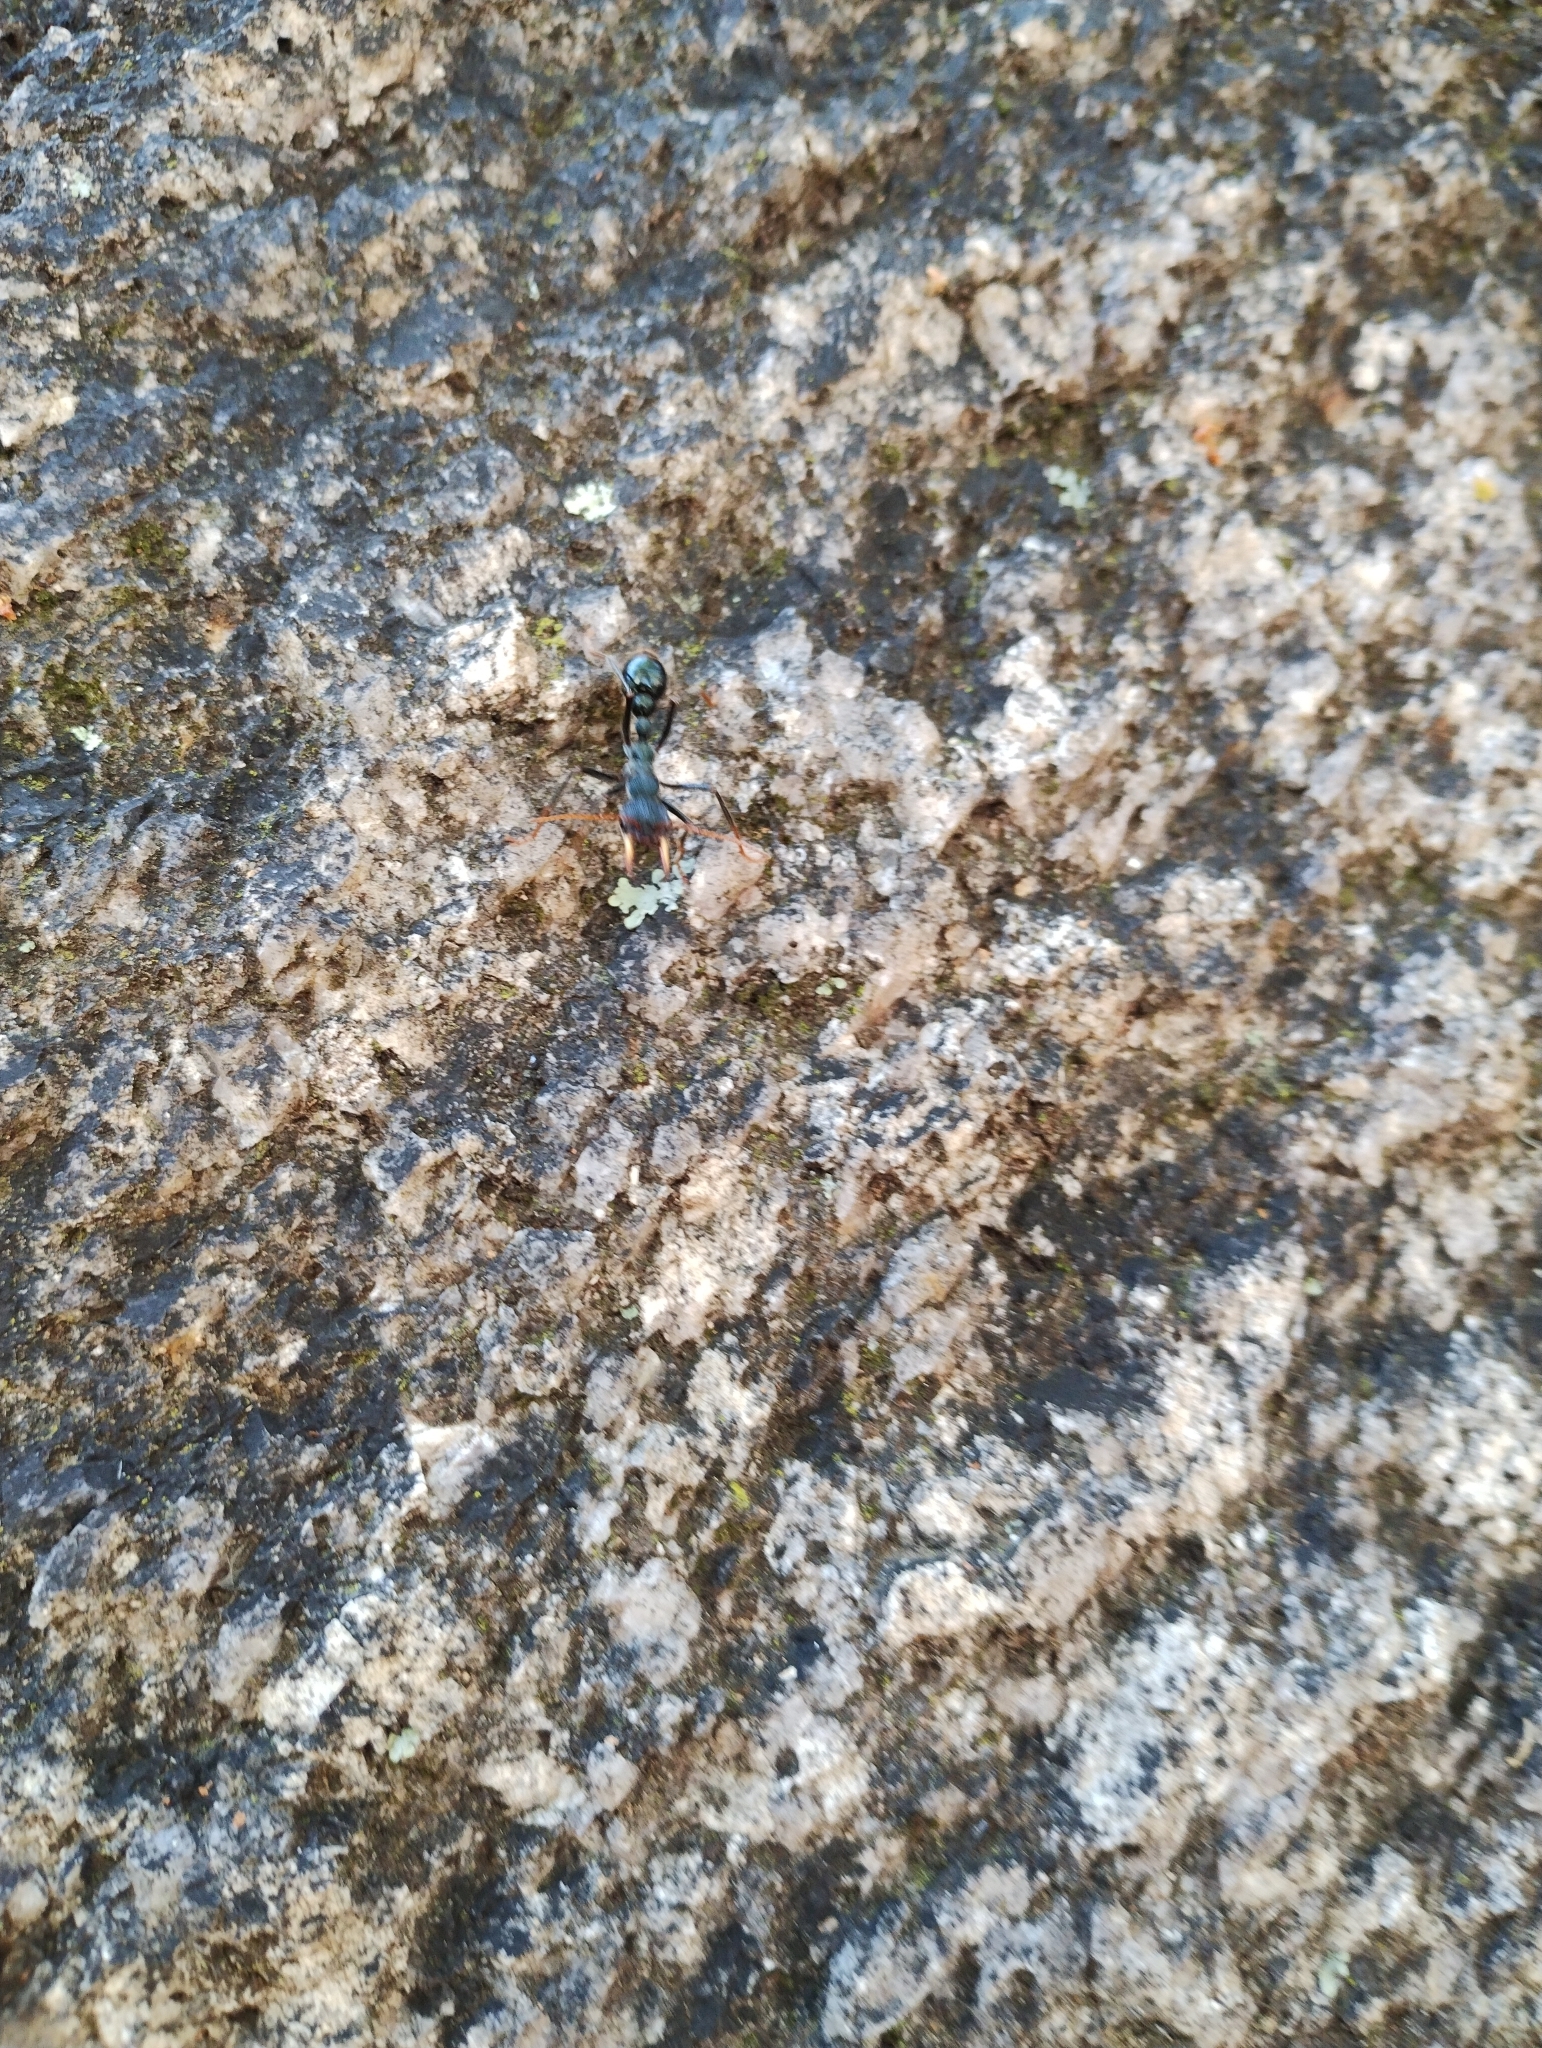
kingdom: Animalia
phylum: Arthropoda
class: Insecta
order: Hymenoptera
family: Formicidae
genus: Myrmecia
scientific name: Myrmecia tarsata
